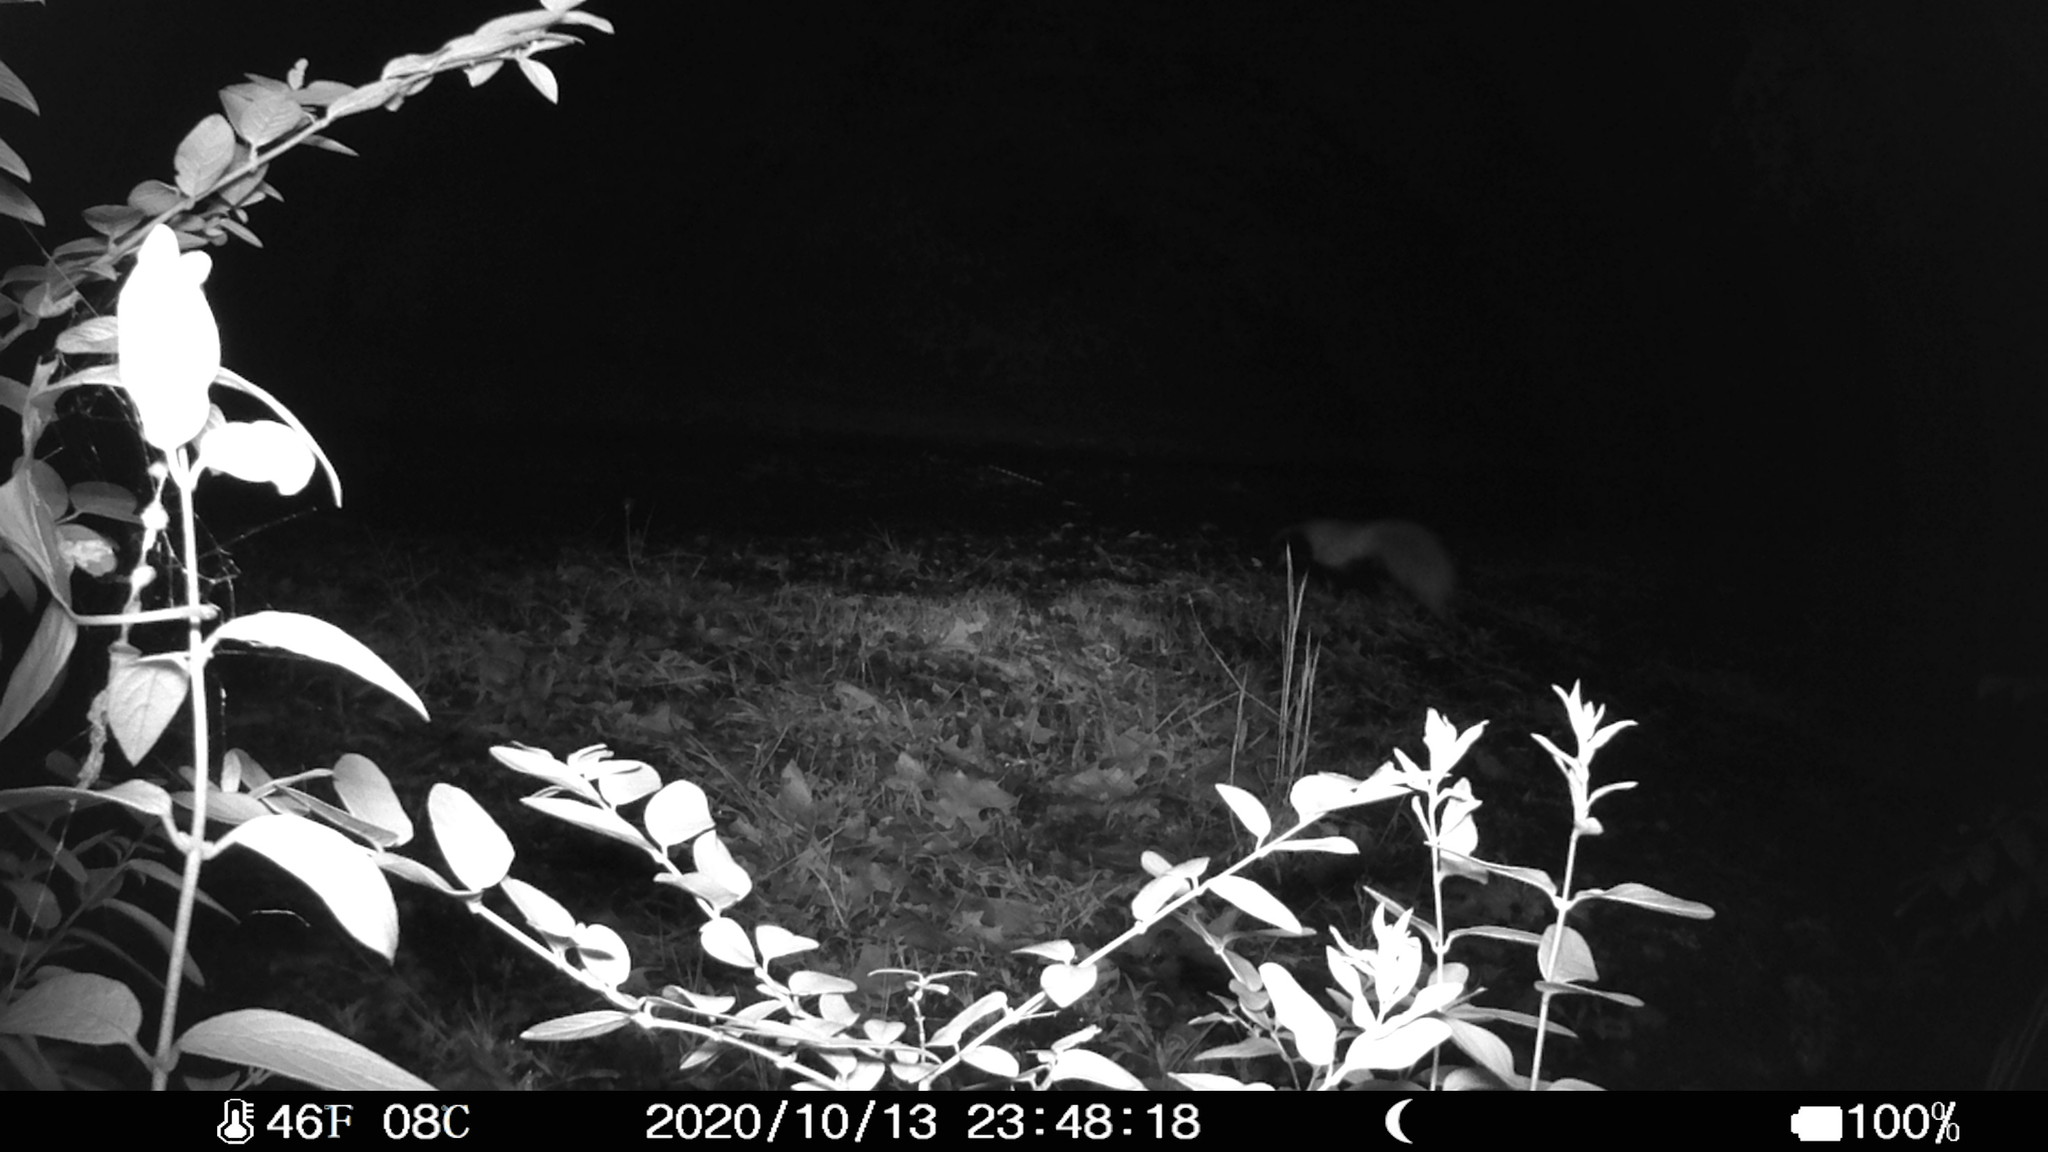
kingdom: Animalia
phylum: Chordata
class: Mammalia
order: Carnivora
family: Mephitidae
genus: Mephitis
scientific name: Mephitis mephitis
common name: Striped skunk
